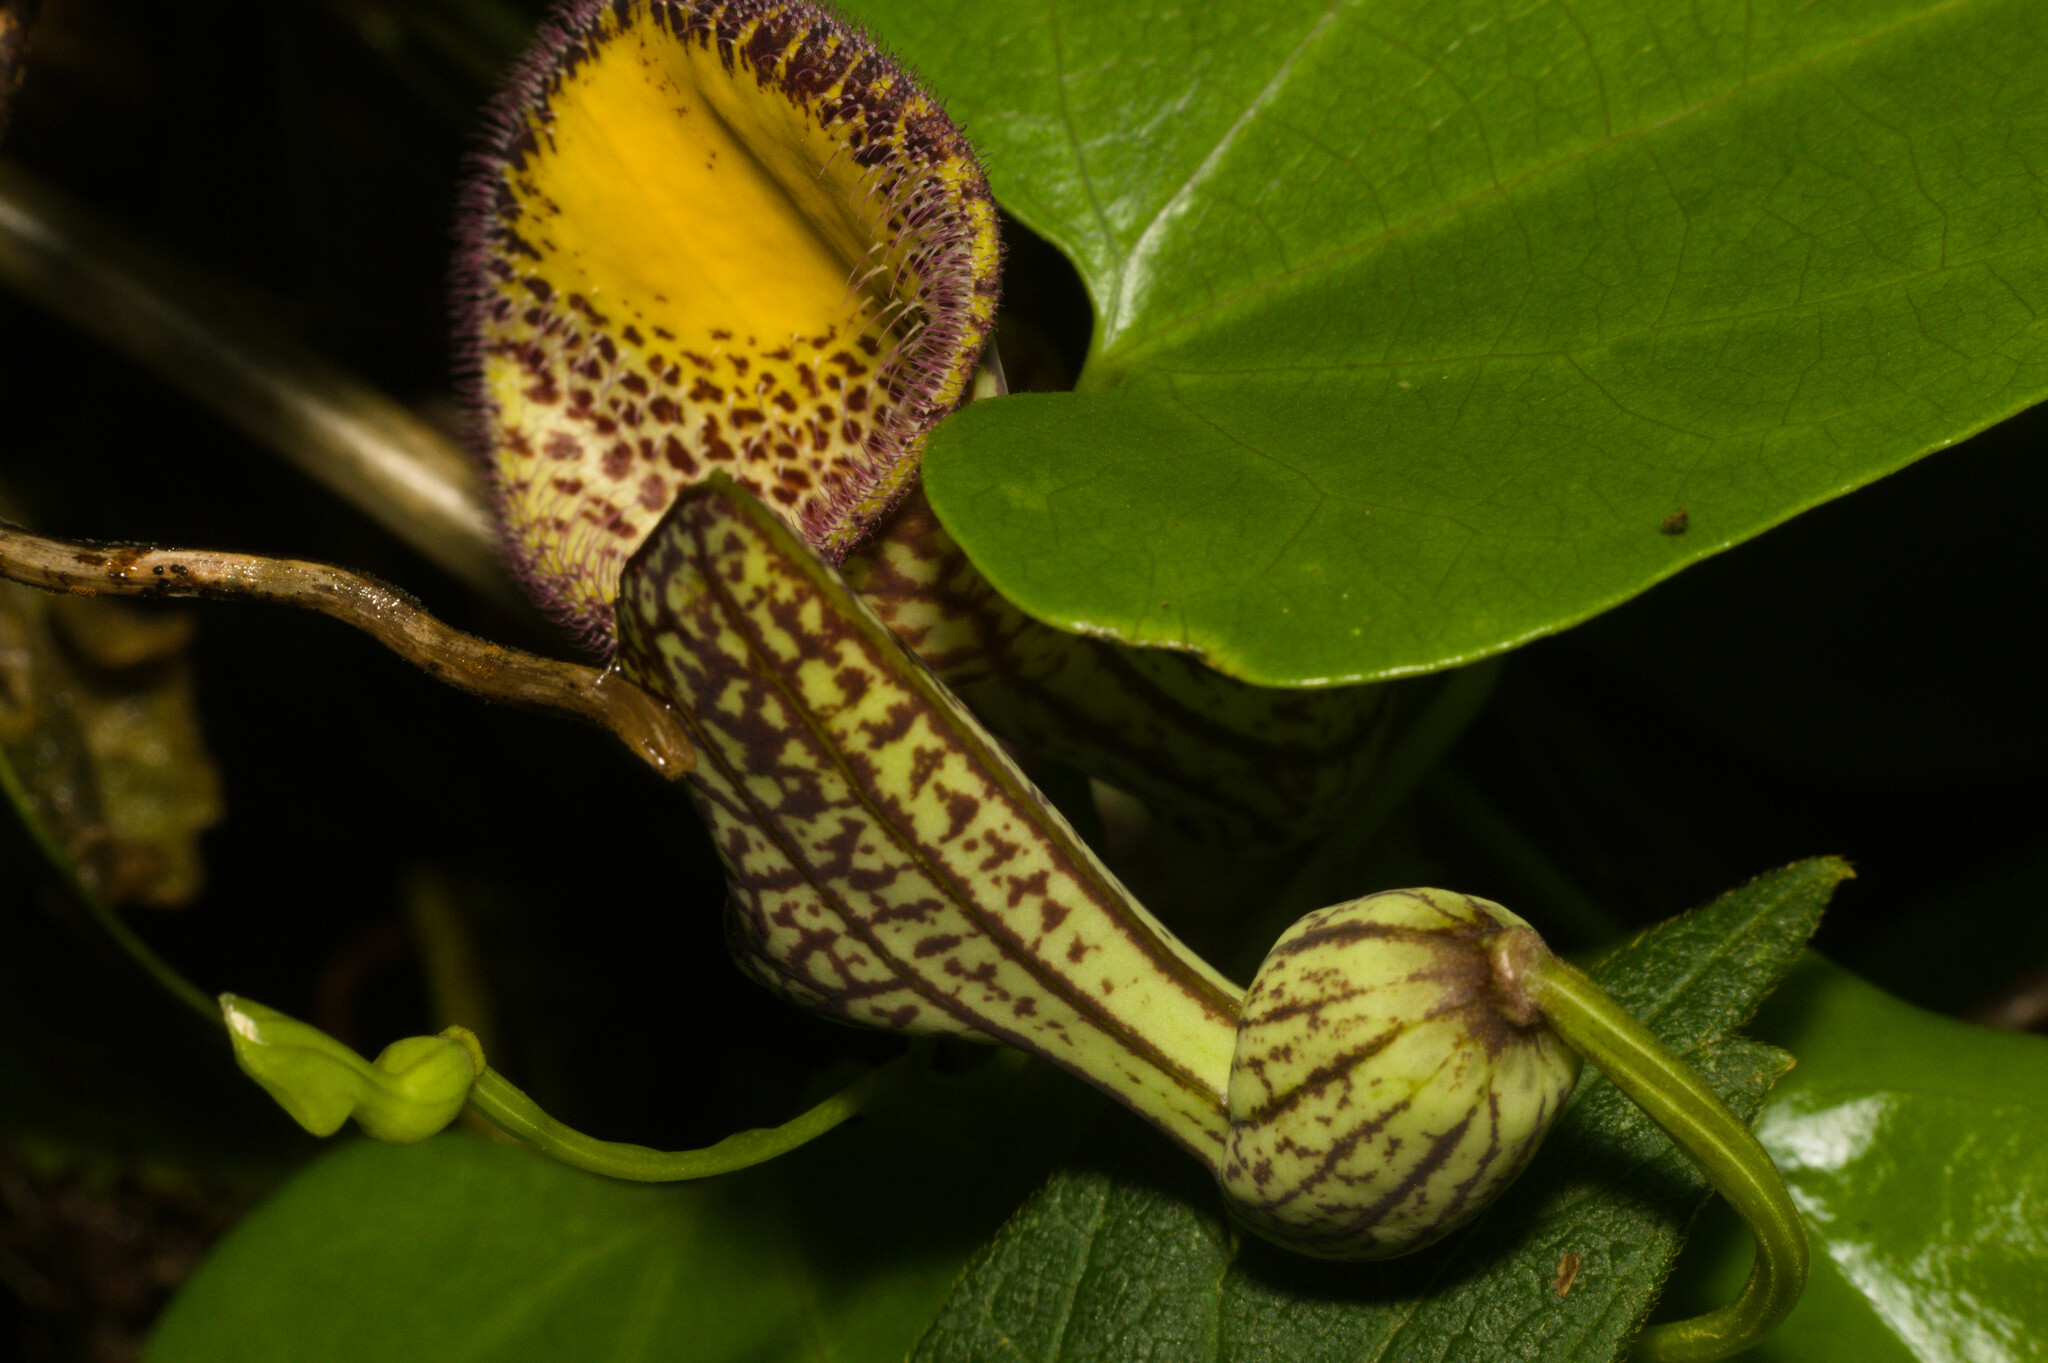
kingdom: Plantae
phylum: Tracheophyta
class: Magnoliopsida
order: Piperales
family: Aristolochiaceae
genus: Aristolochia
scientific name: Aristolochia triangularis
